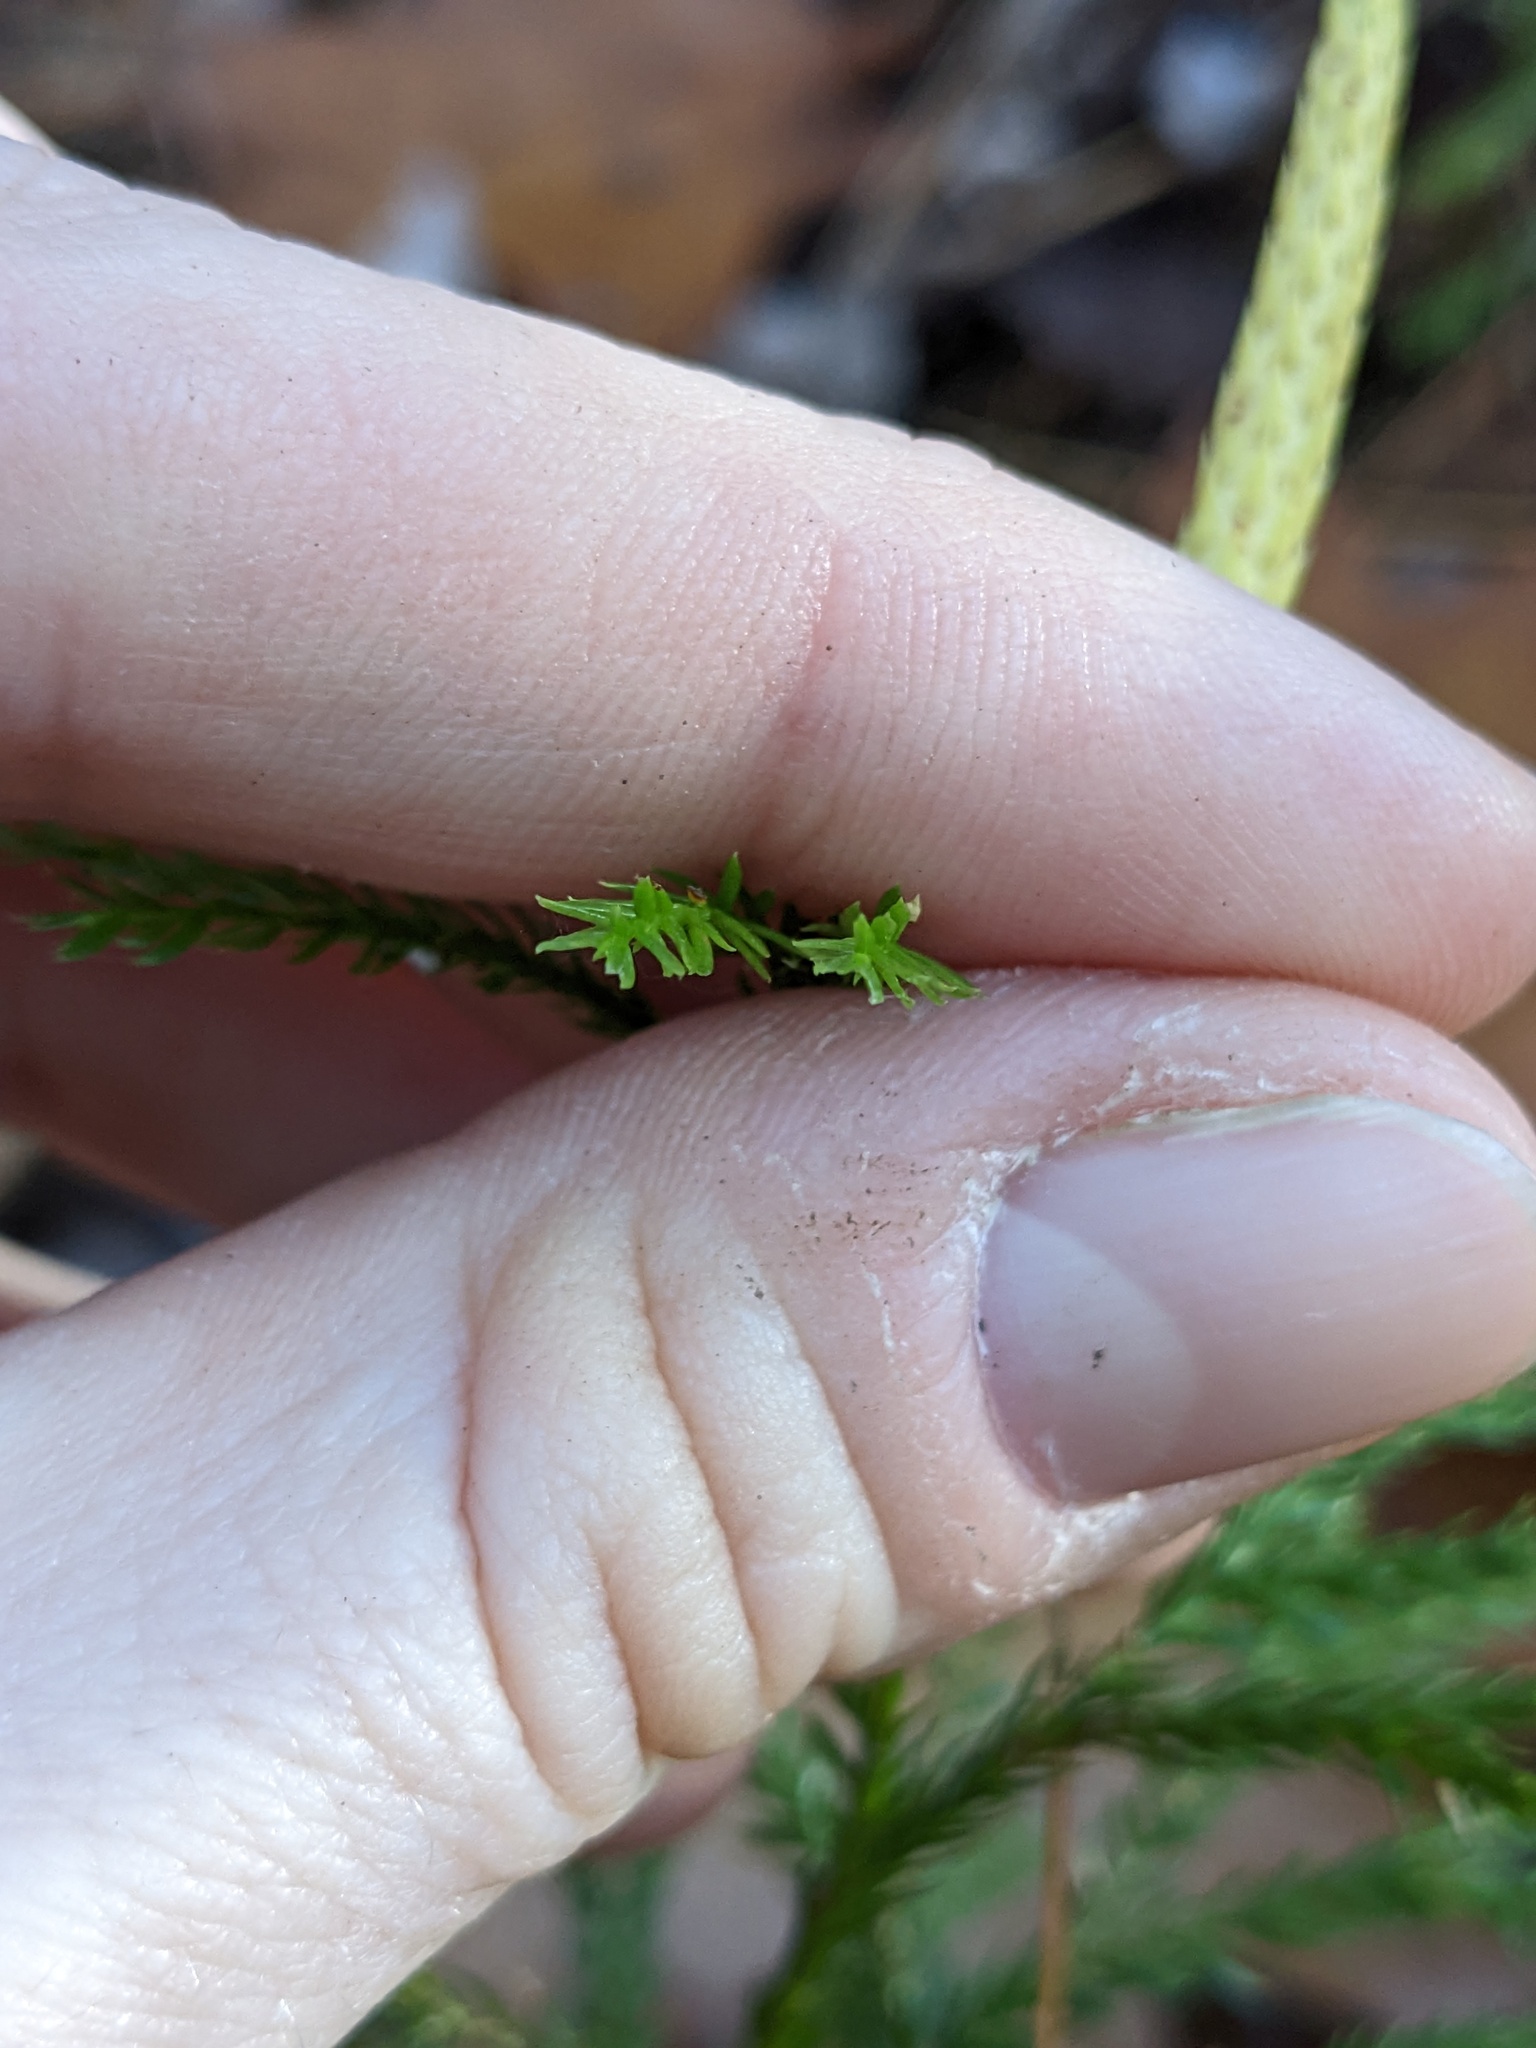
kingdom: Plantae
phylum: Tracheophyta
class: Lycopodiopsida
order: Lycopodiales
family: Lycopodiaceae
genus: Dendrolycopodium
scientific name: Dendrolycopodium obscurum
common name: Common ground-pine
